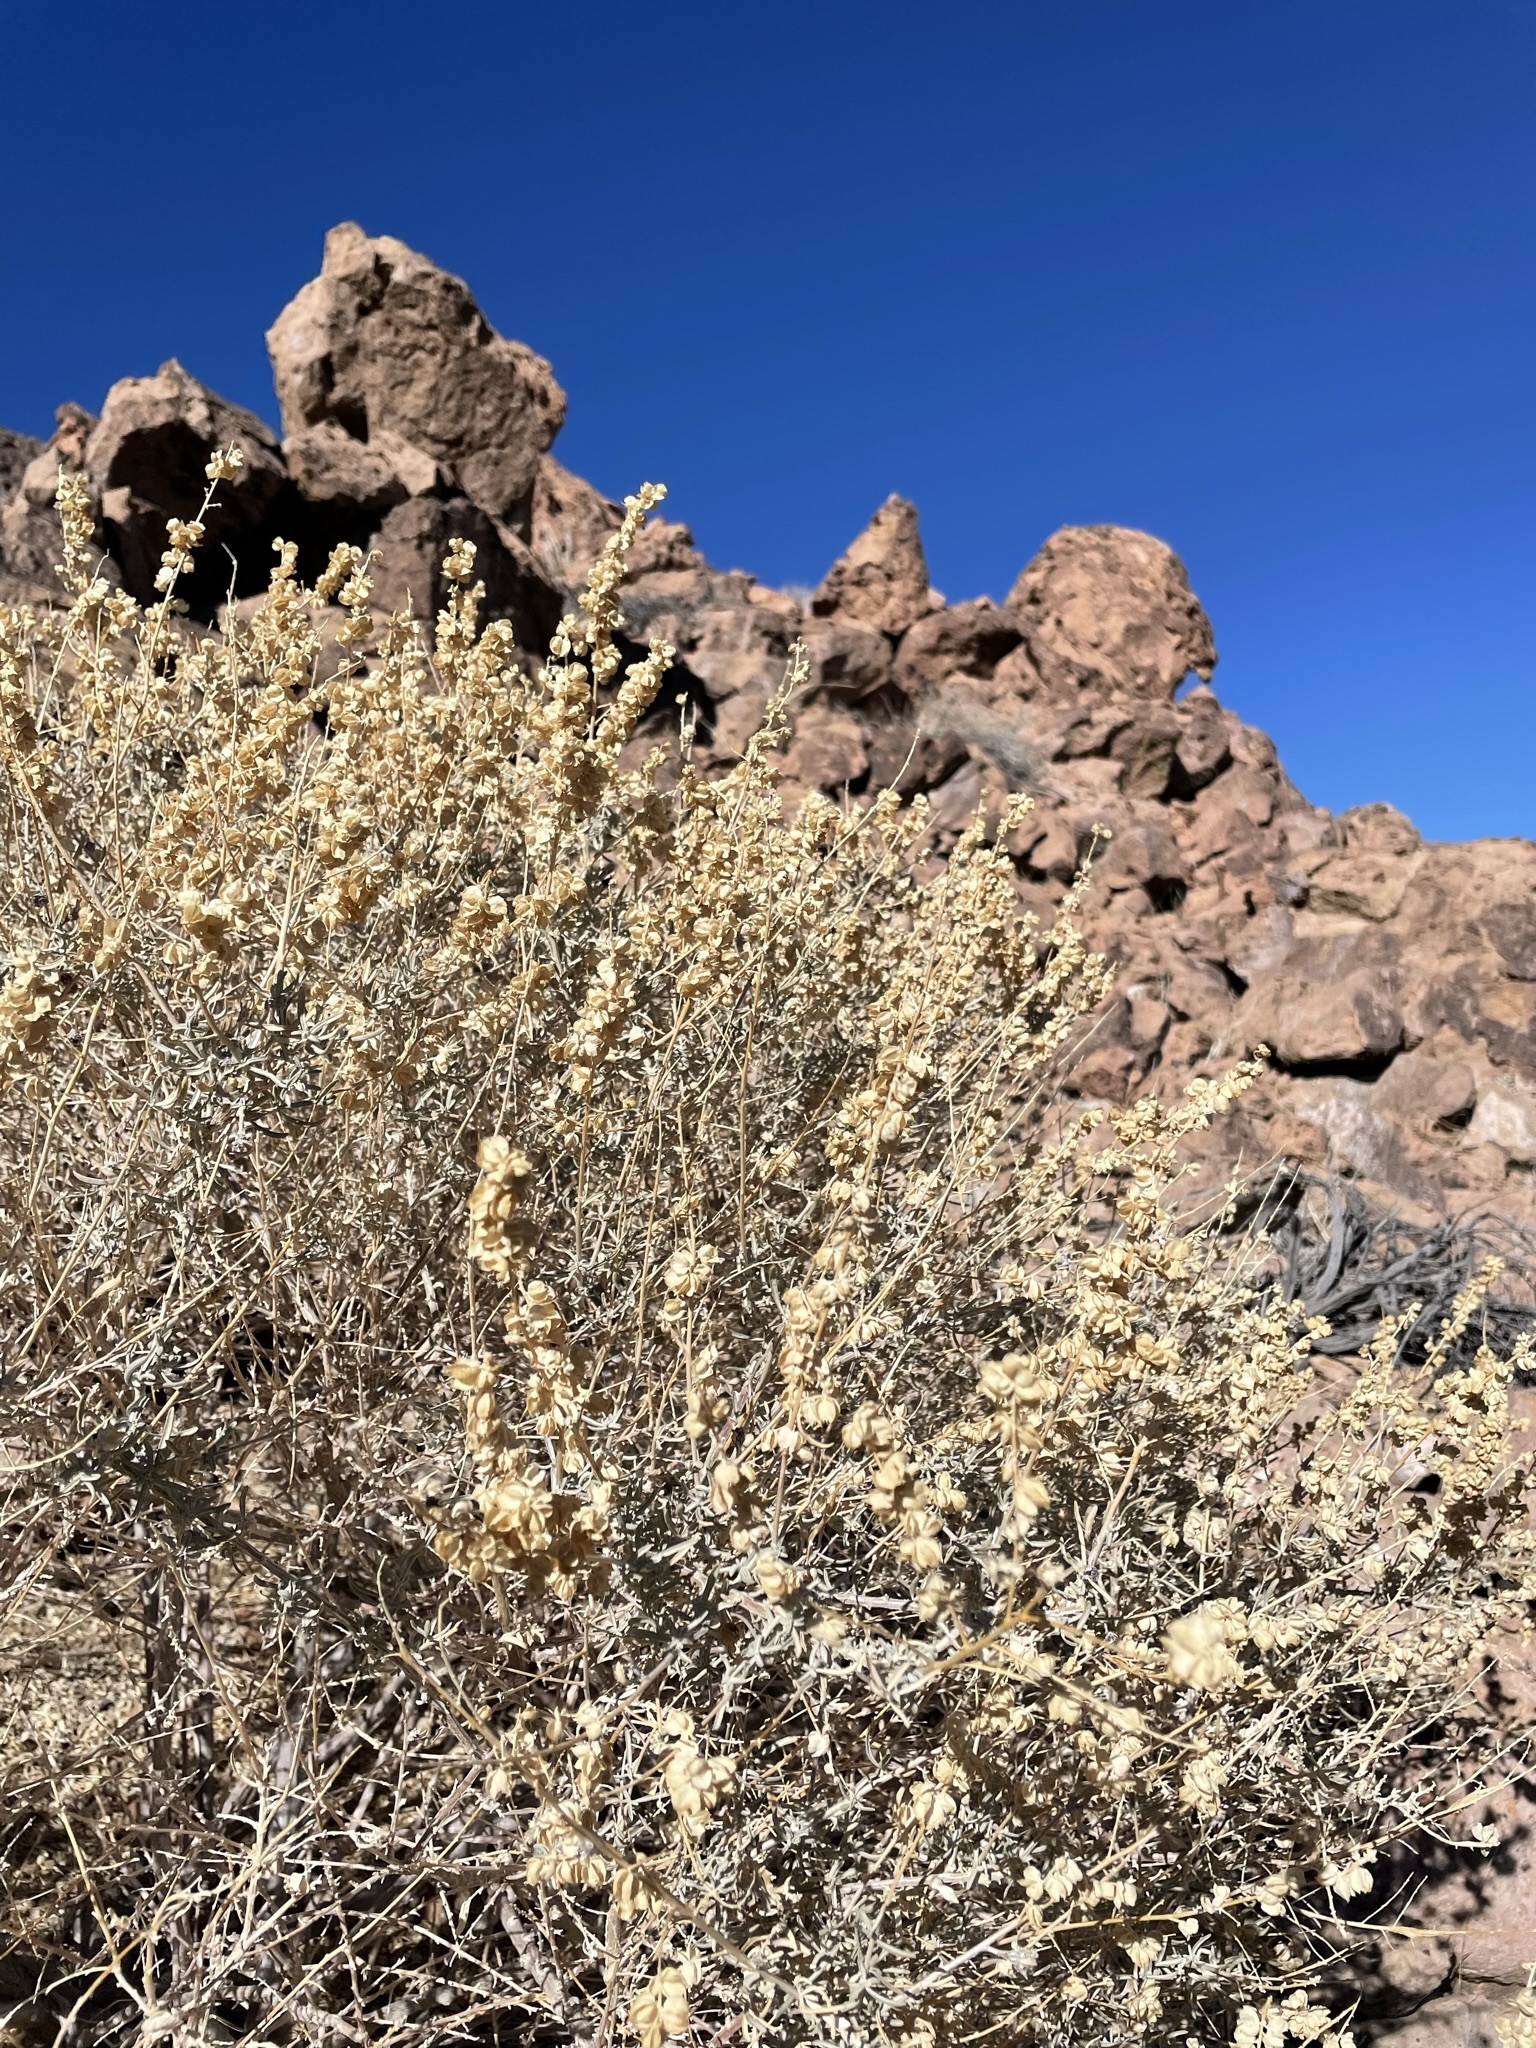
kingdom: Plantae
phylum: Tracheophyta
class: Magnoliopsida
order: Caryophyllales
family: Amaranthaceae
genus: Atriplex
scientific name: Atriplex canescens
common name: Four-wing saltbush
